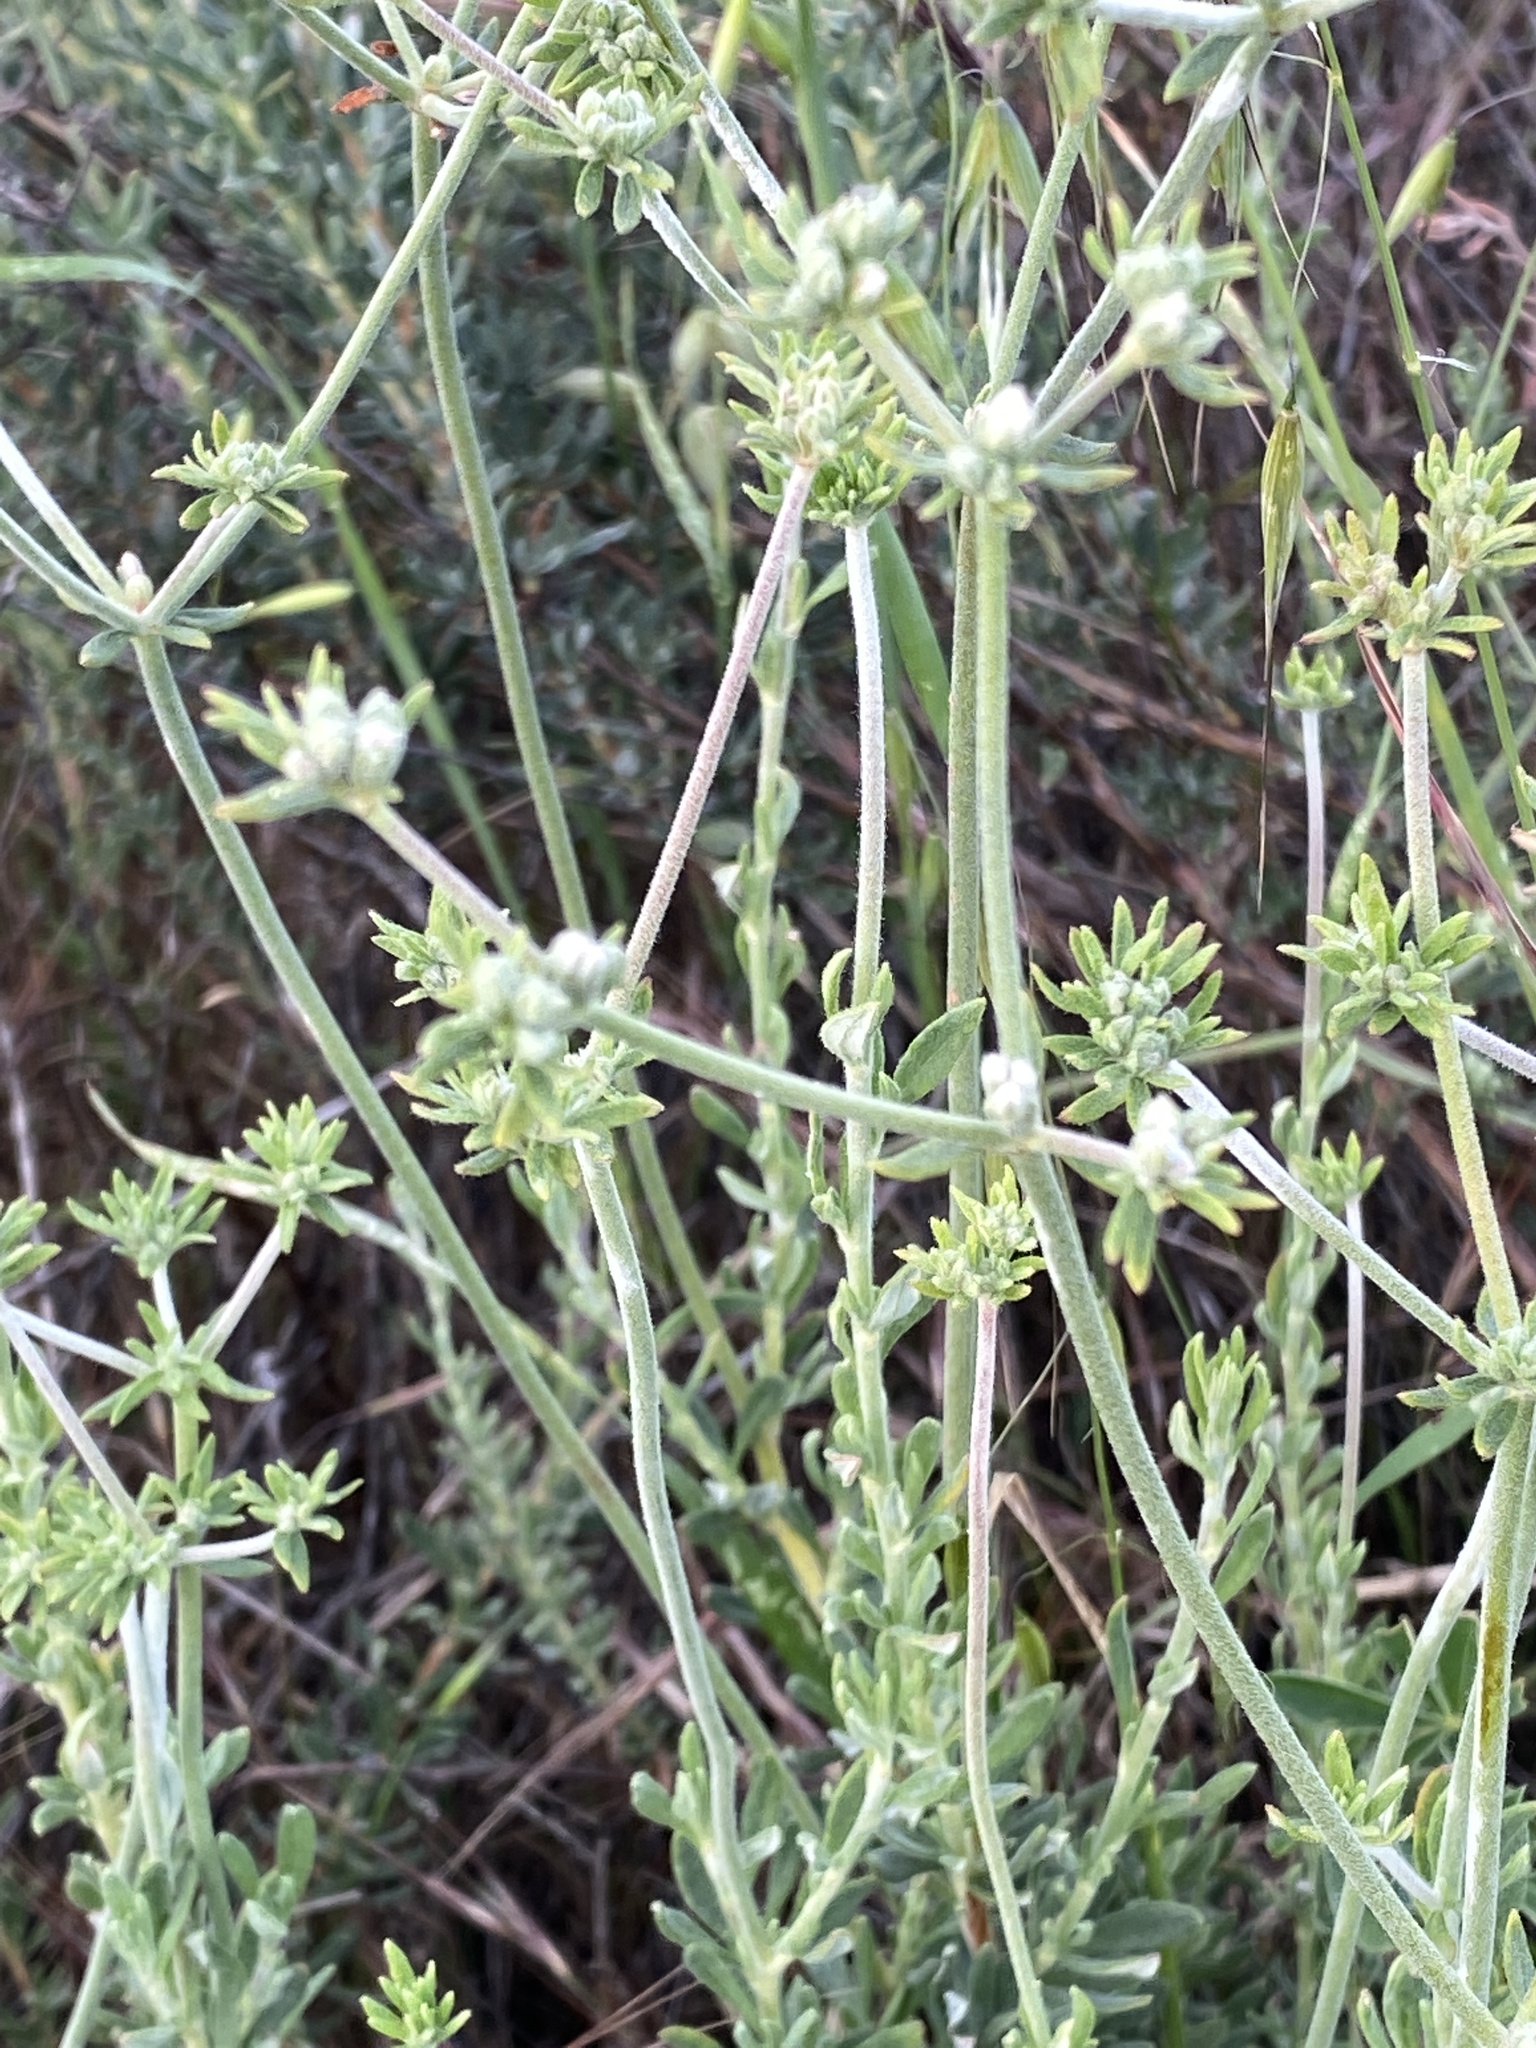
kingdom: Plantae
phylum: Tracheophyta
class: Magnoliopsida
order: Caryophyllales
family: Polygonaceae
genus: Eriogonum
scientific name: Eriogonum fasciculatum
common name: California wild buckwheat
